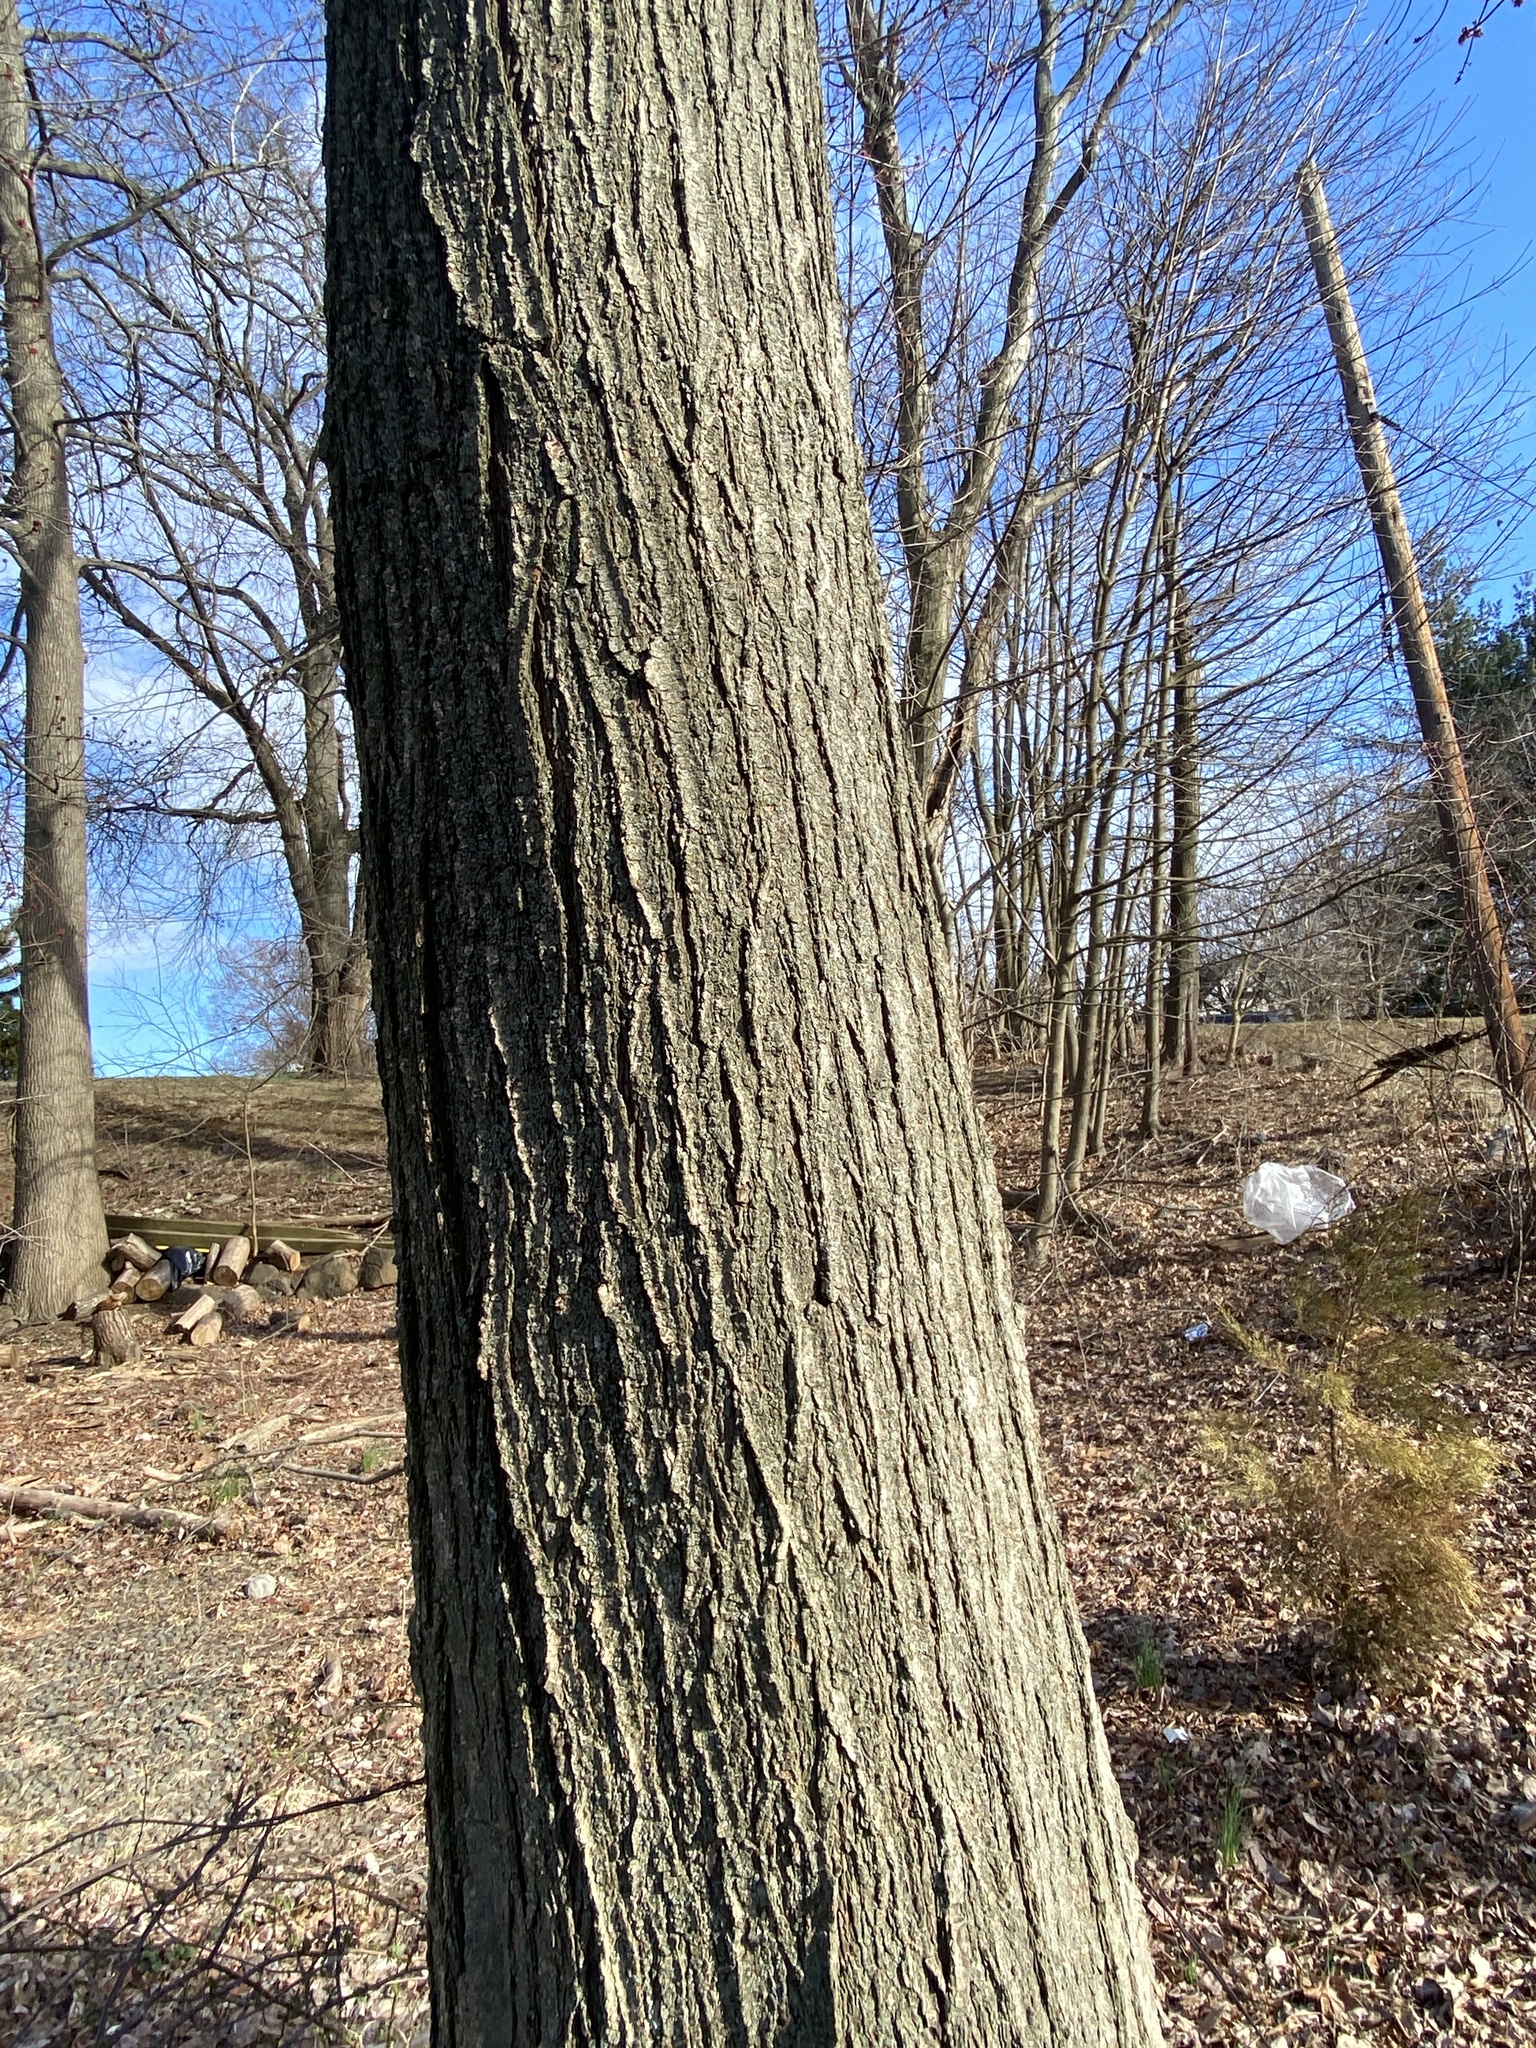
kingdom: Plantae
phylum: Tracheophyta
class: Magnoliopsida
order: Sapindales
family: Sapindaceae
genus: Acer
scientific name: Acer rubrum
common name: Red maple
